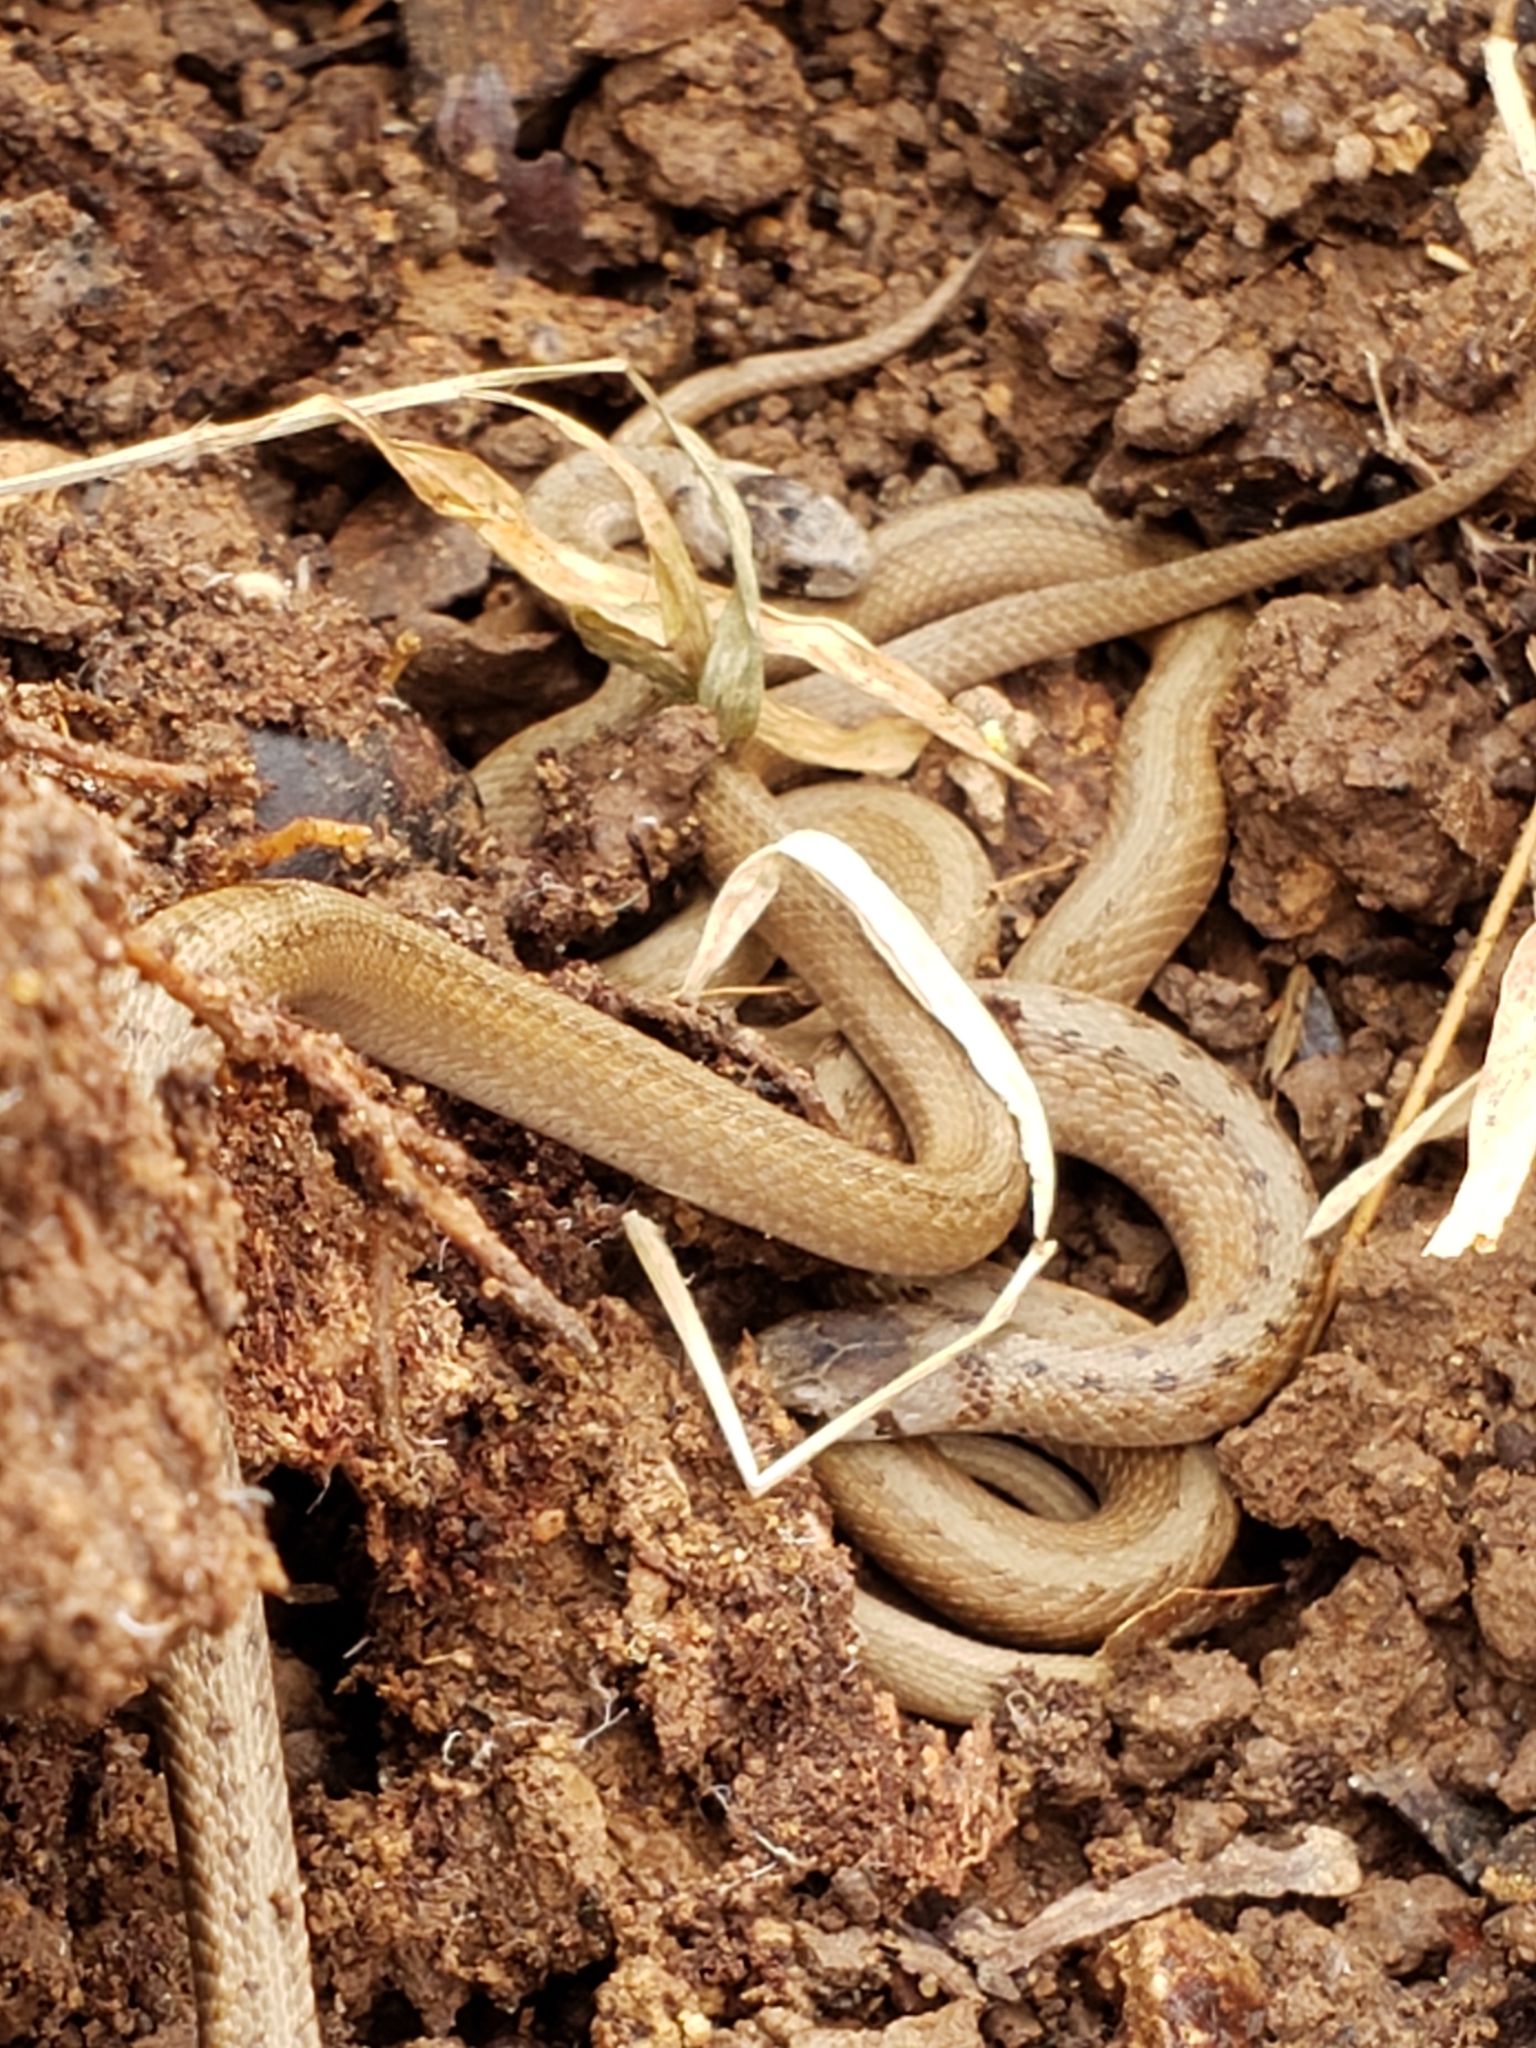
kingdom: Animalia
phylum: Chordata
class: Squamata
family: Colubridae
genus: Storeria
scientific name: Storeria dekayi
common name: (dekay’s) brown snake
